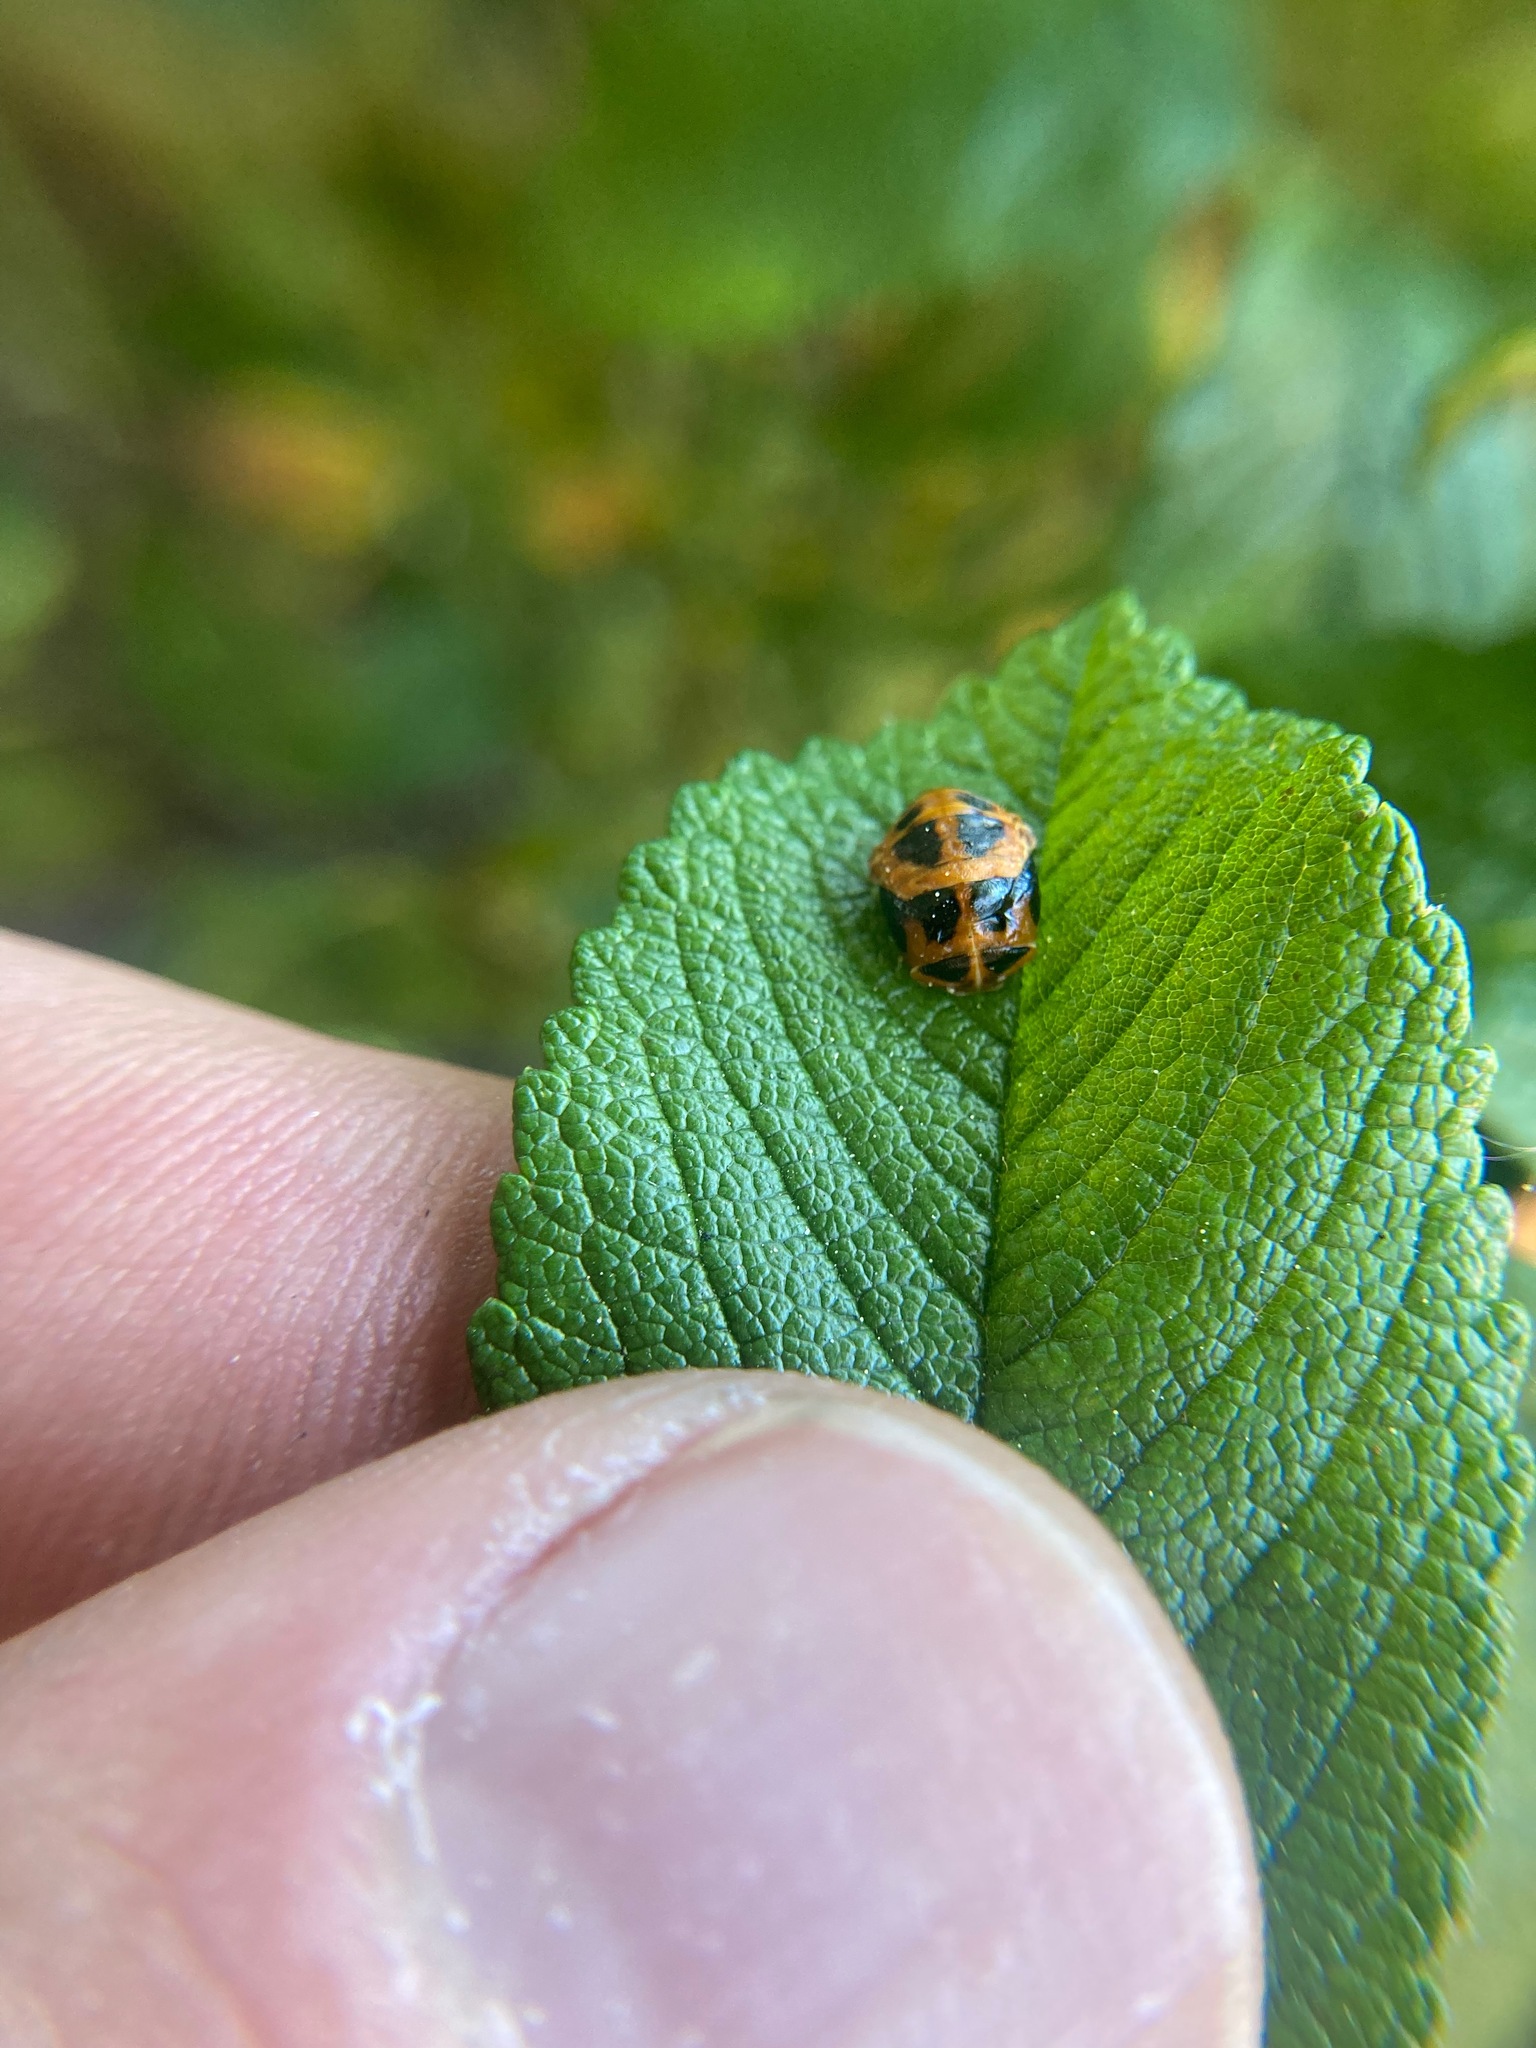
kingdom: Animalia
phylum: Arthropoda
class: Insecta
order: Coleoptera
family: Coccinellidae
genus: Harmonia
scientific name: Harmonia axyridis
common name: Harlequin ladybird
